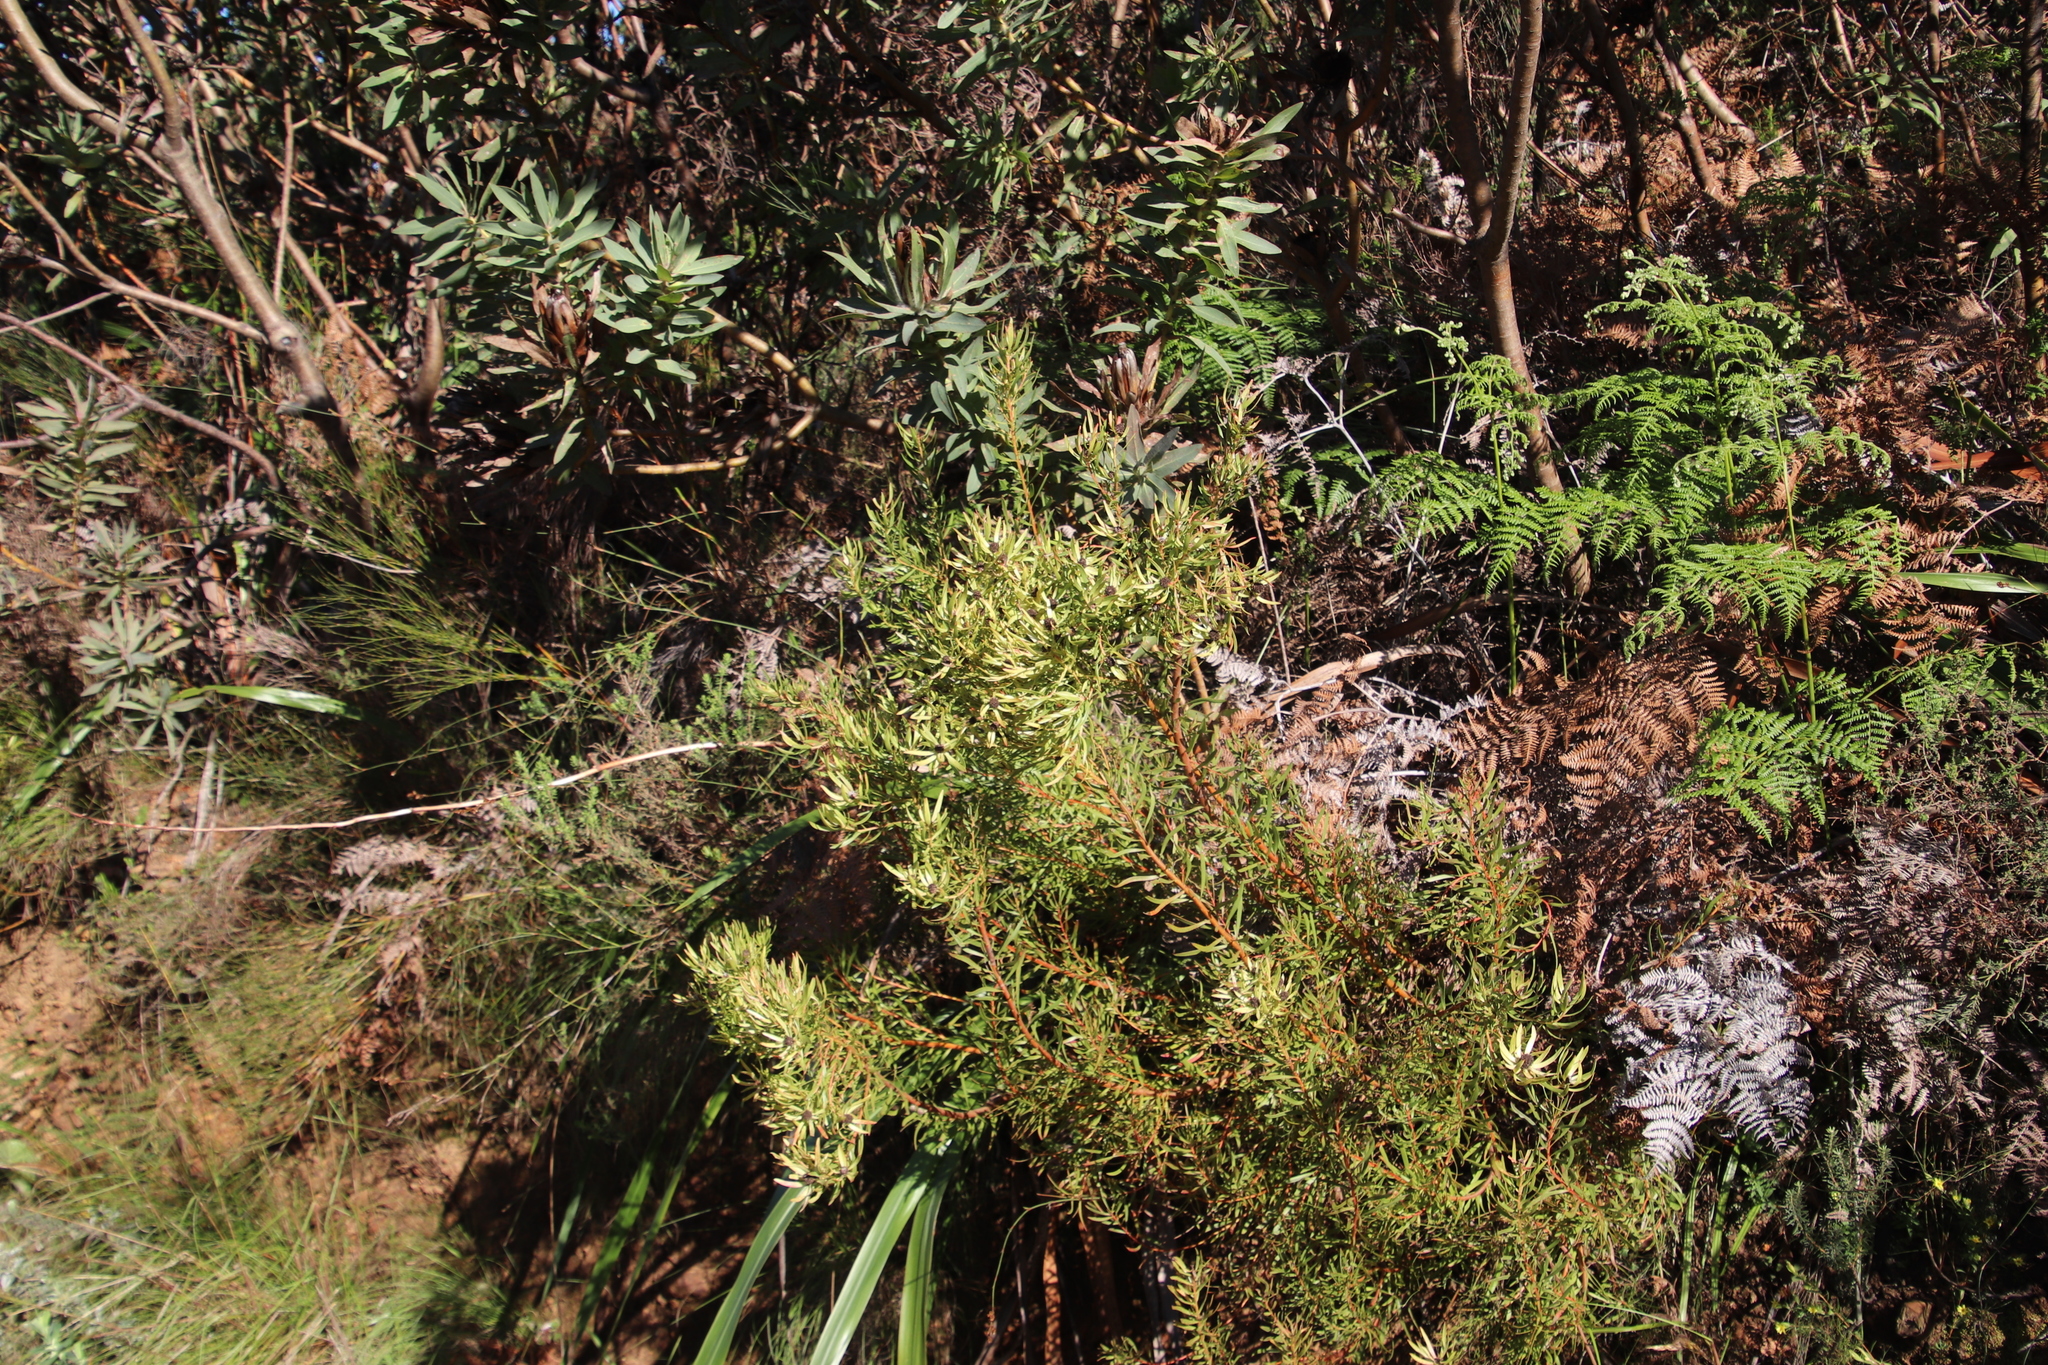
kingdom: Plantae
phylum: Tracheophyta
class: Magnoliopsida
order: Proteales
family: Proteaceae
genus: Leucadendron
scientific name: Leucadendron spissifolium
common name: Spear-leaf conebush
